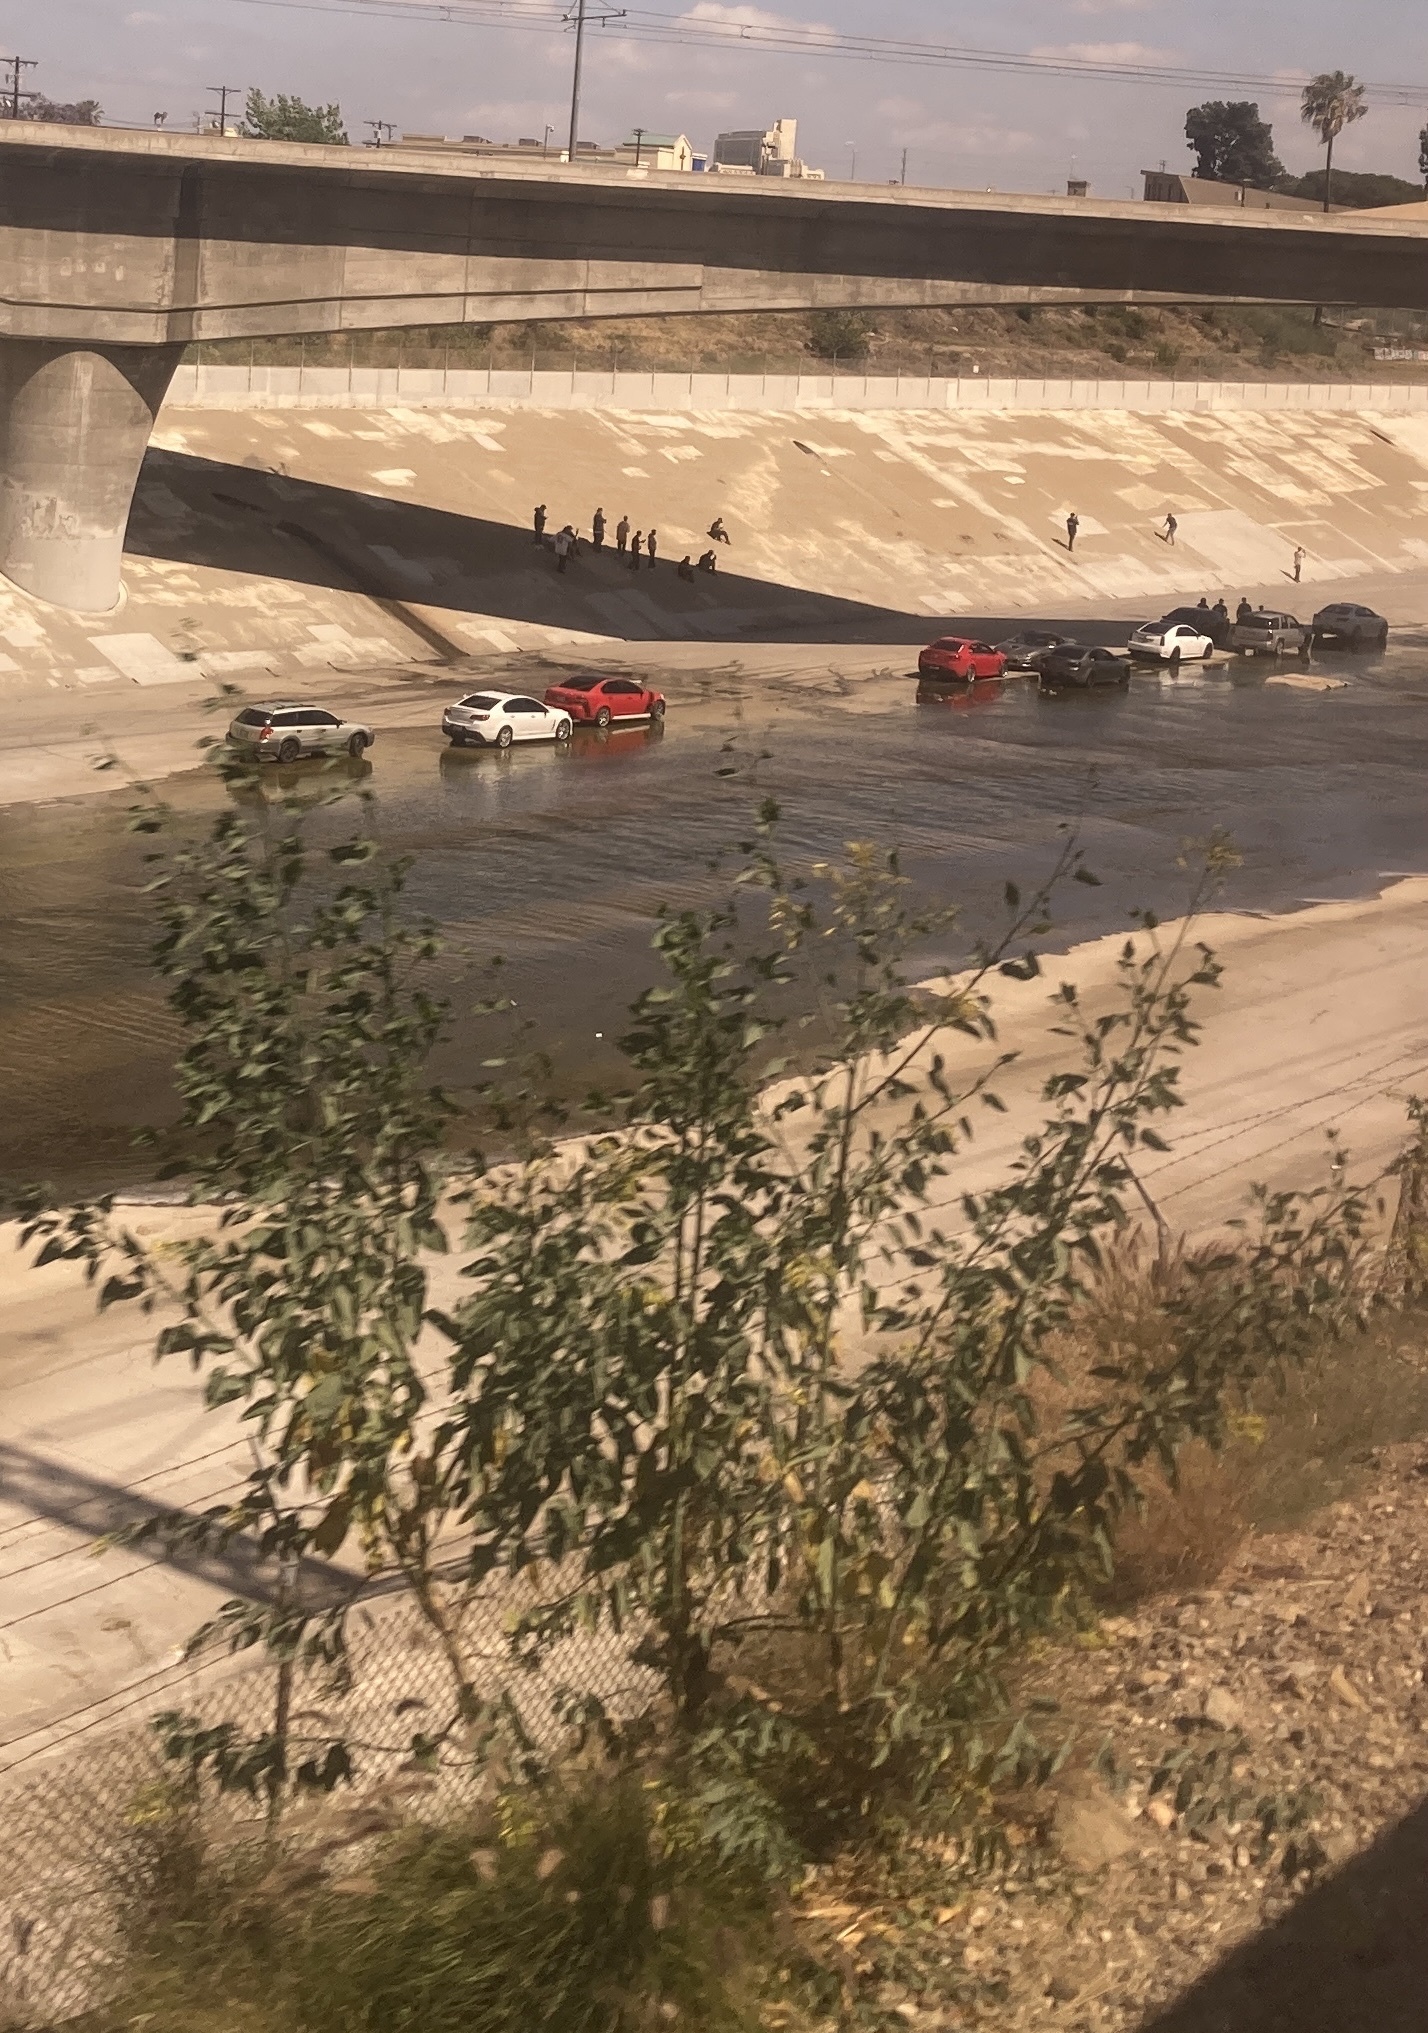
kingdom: Plantae
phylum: Tracheophyta
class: Magnoliopsida
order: Solanales
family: Solanaceae
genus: Nicotiana
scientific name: Nicotiana glauca
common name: Tree tobacco
